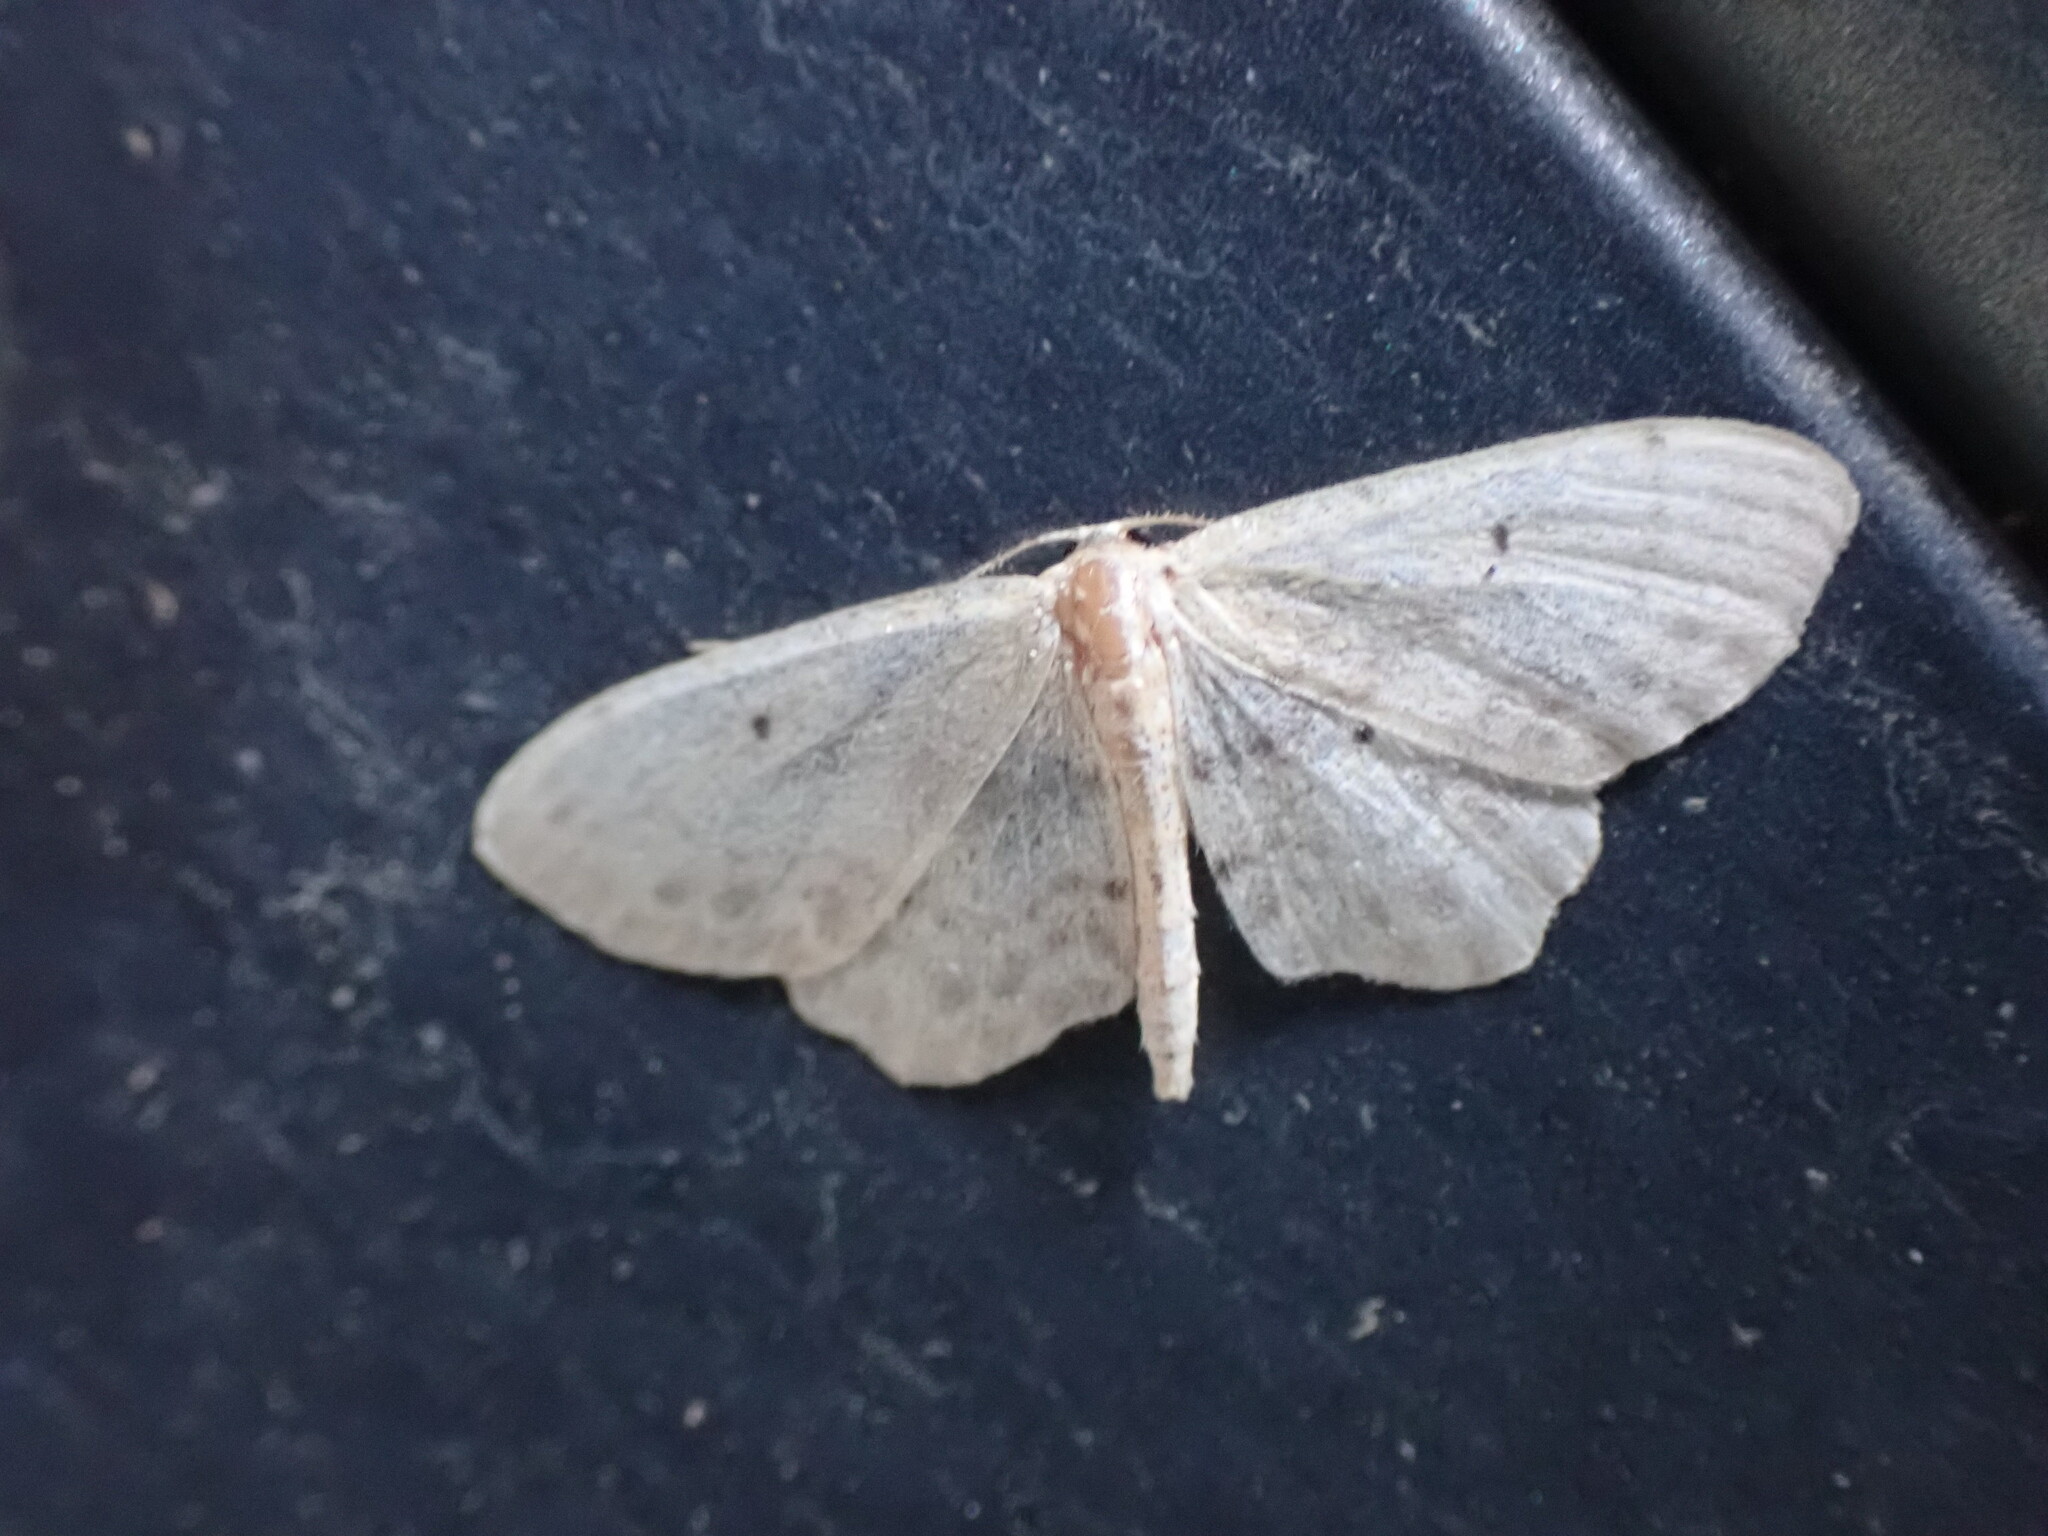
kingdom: Animalia
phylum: Arthropoda
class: Insecta
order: Lepidoptera
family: Geometridae
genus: Idaea
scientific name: Idaea dimidiata
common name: Single-dotted wave
